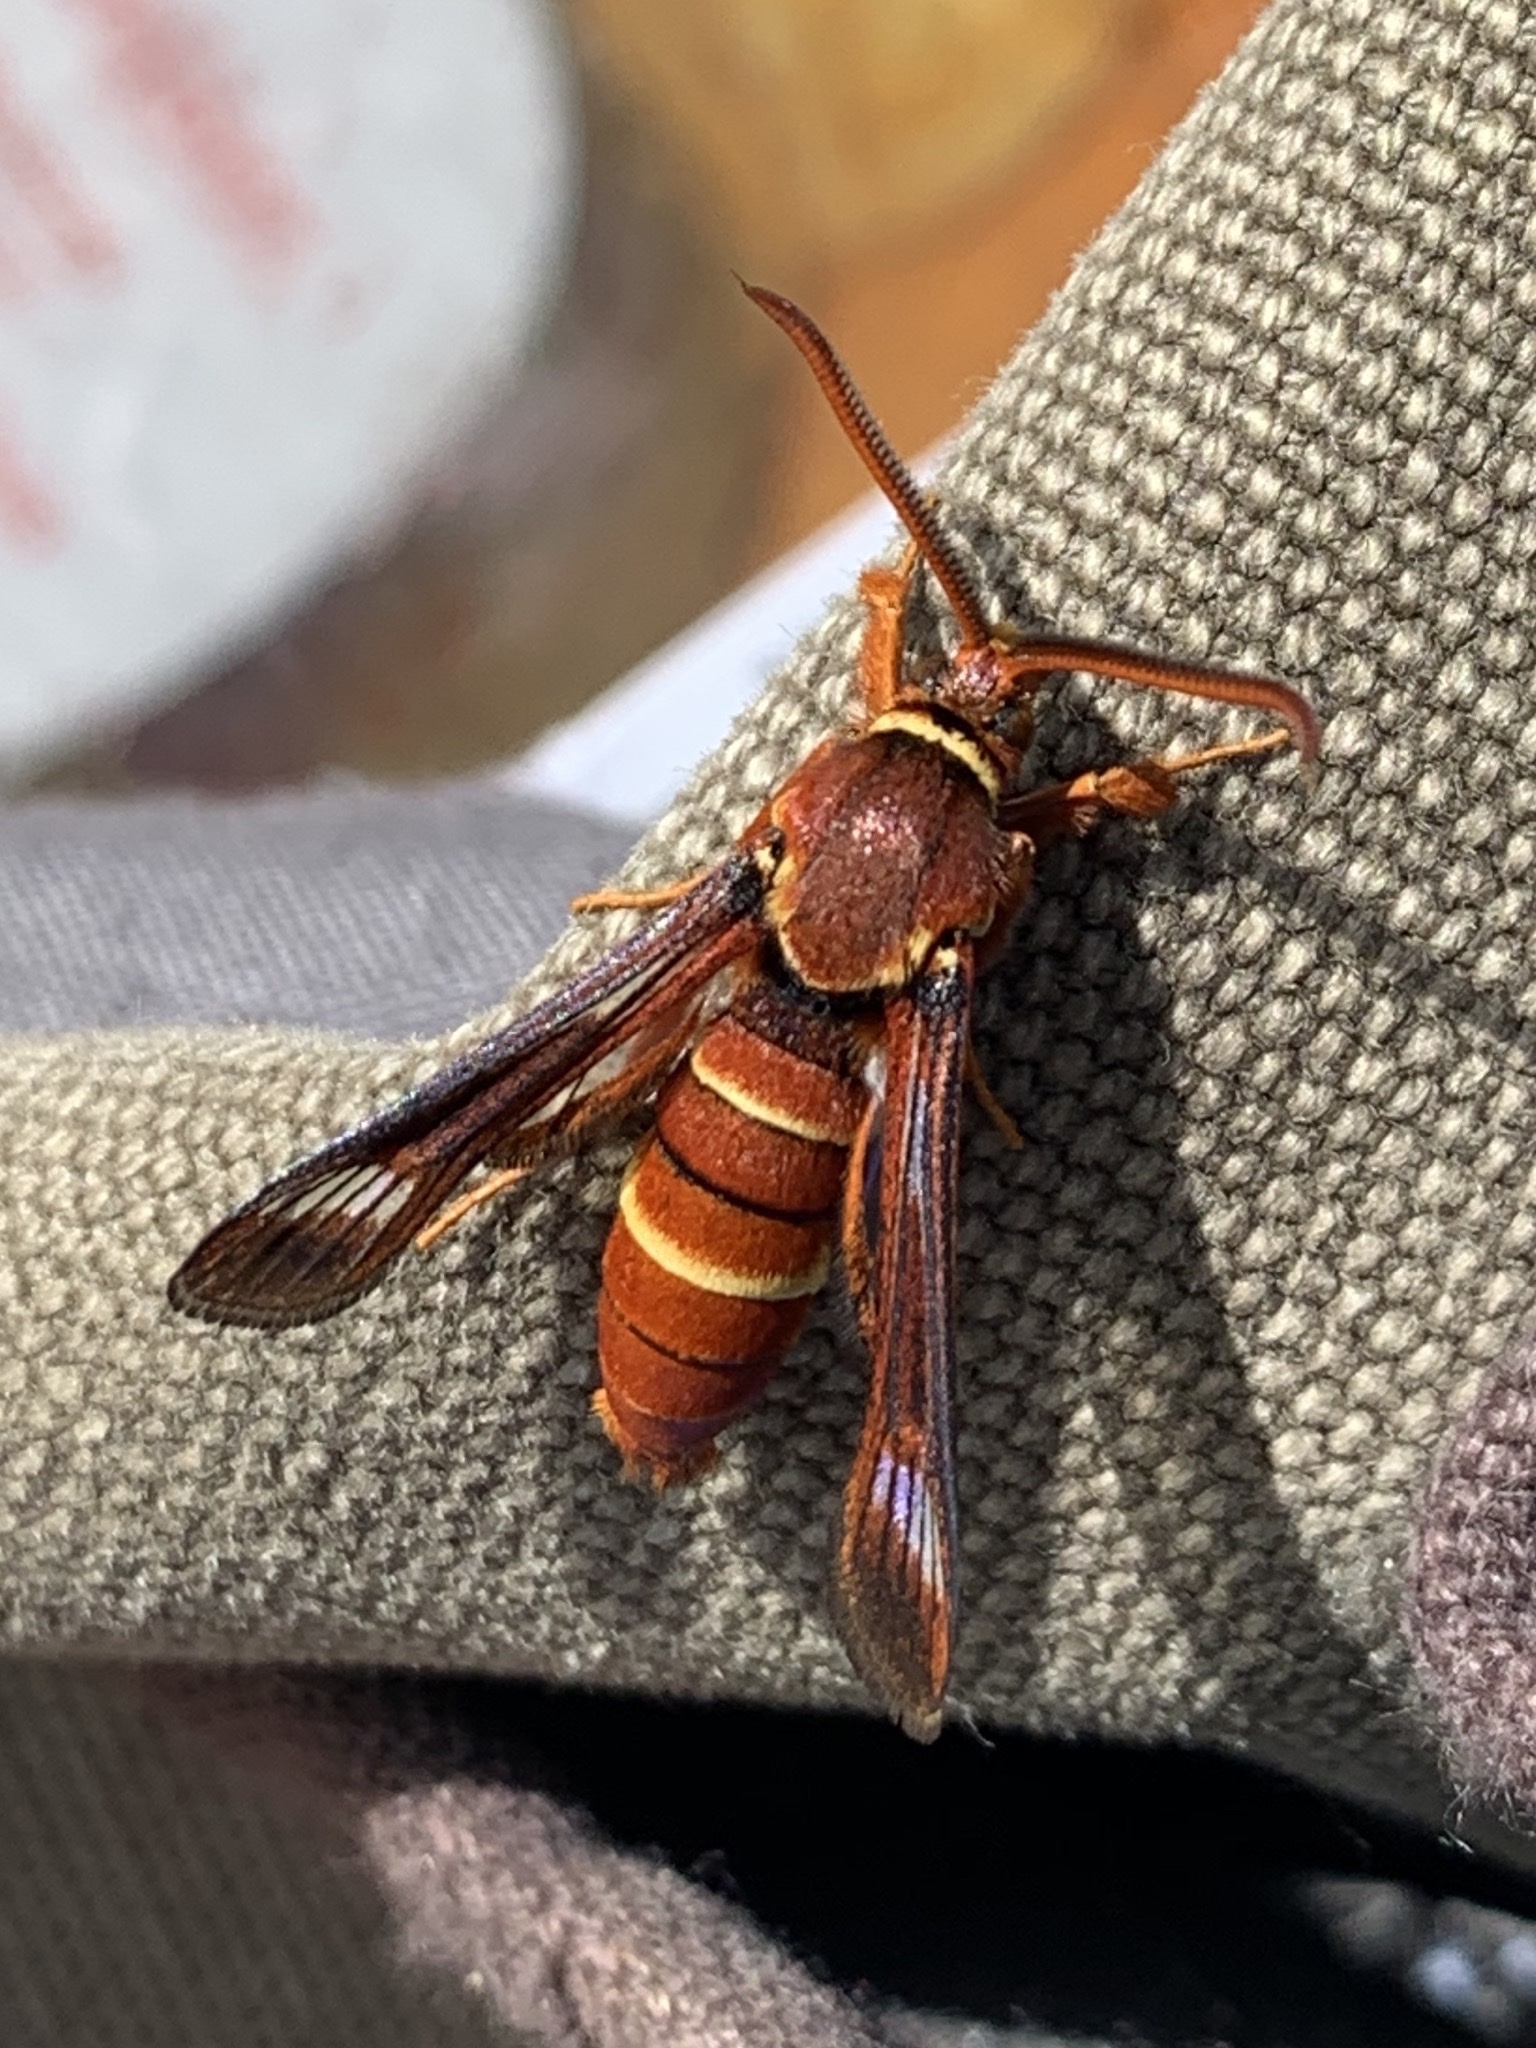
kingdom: Animalia
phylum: Arthropoda
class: Insecta
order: Lepidoptera
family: Sesiidae
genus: Paranthrene
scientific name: Paranthrene robiniae
